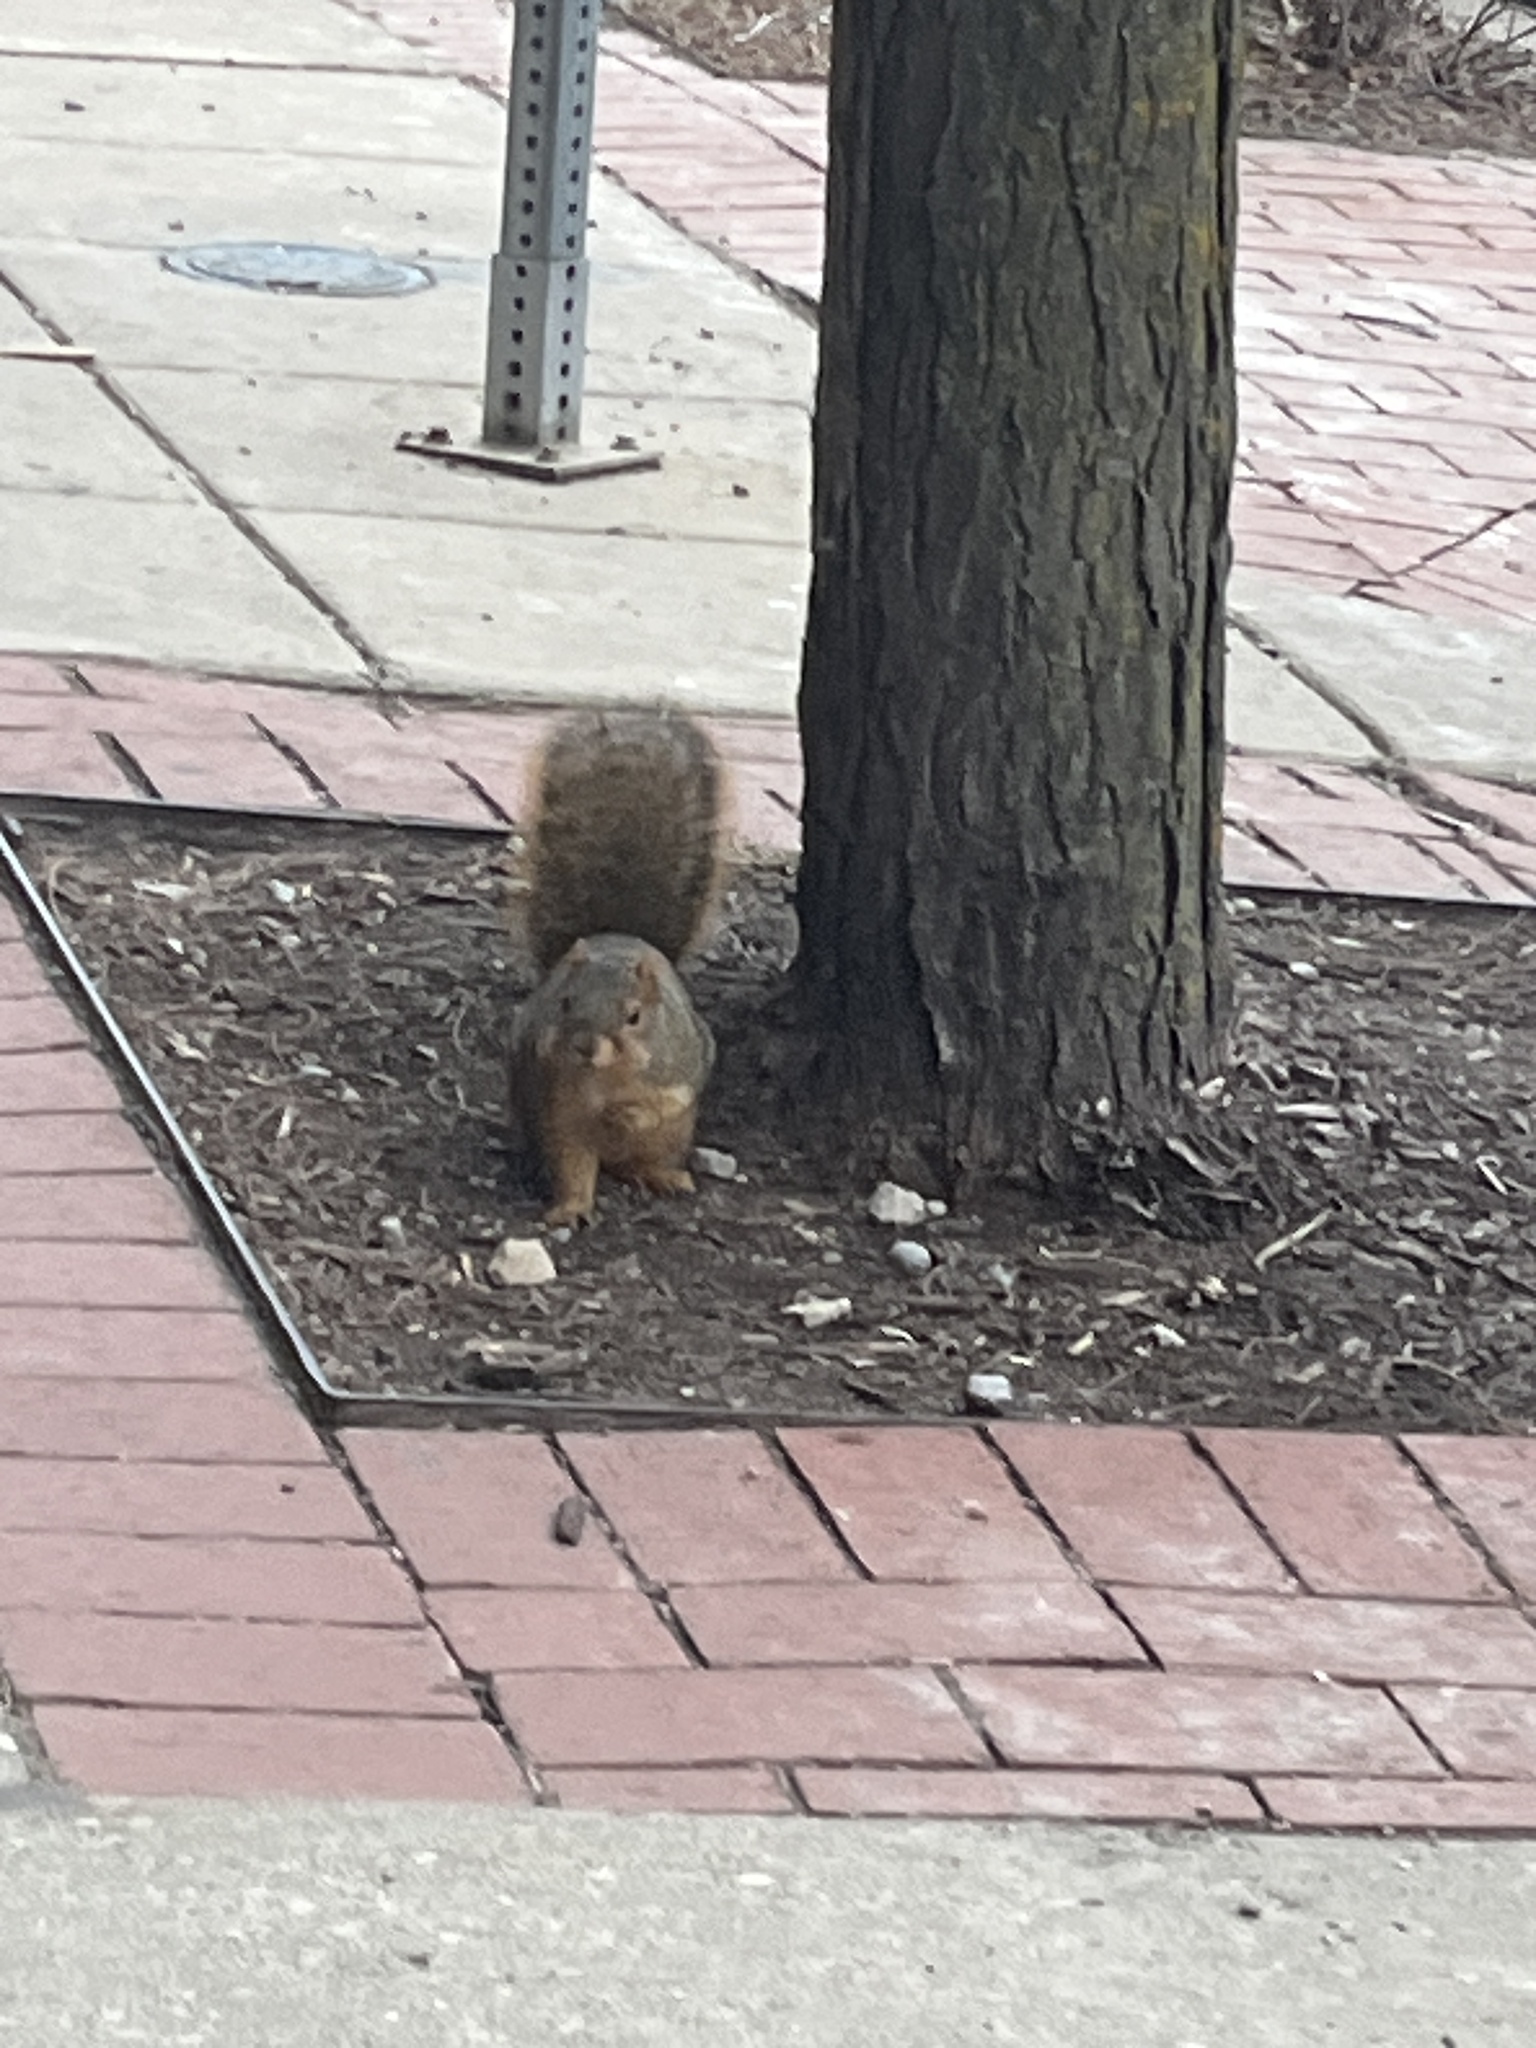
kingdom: Animalia
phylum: Chordata
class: Mammalia
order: Rodentia
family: Sciuridae
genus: Sciurus
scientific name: Sciurus niger
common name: Fox squirrel
